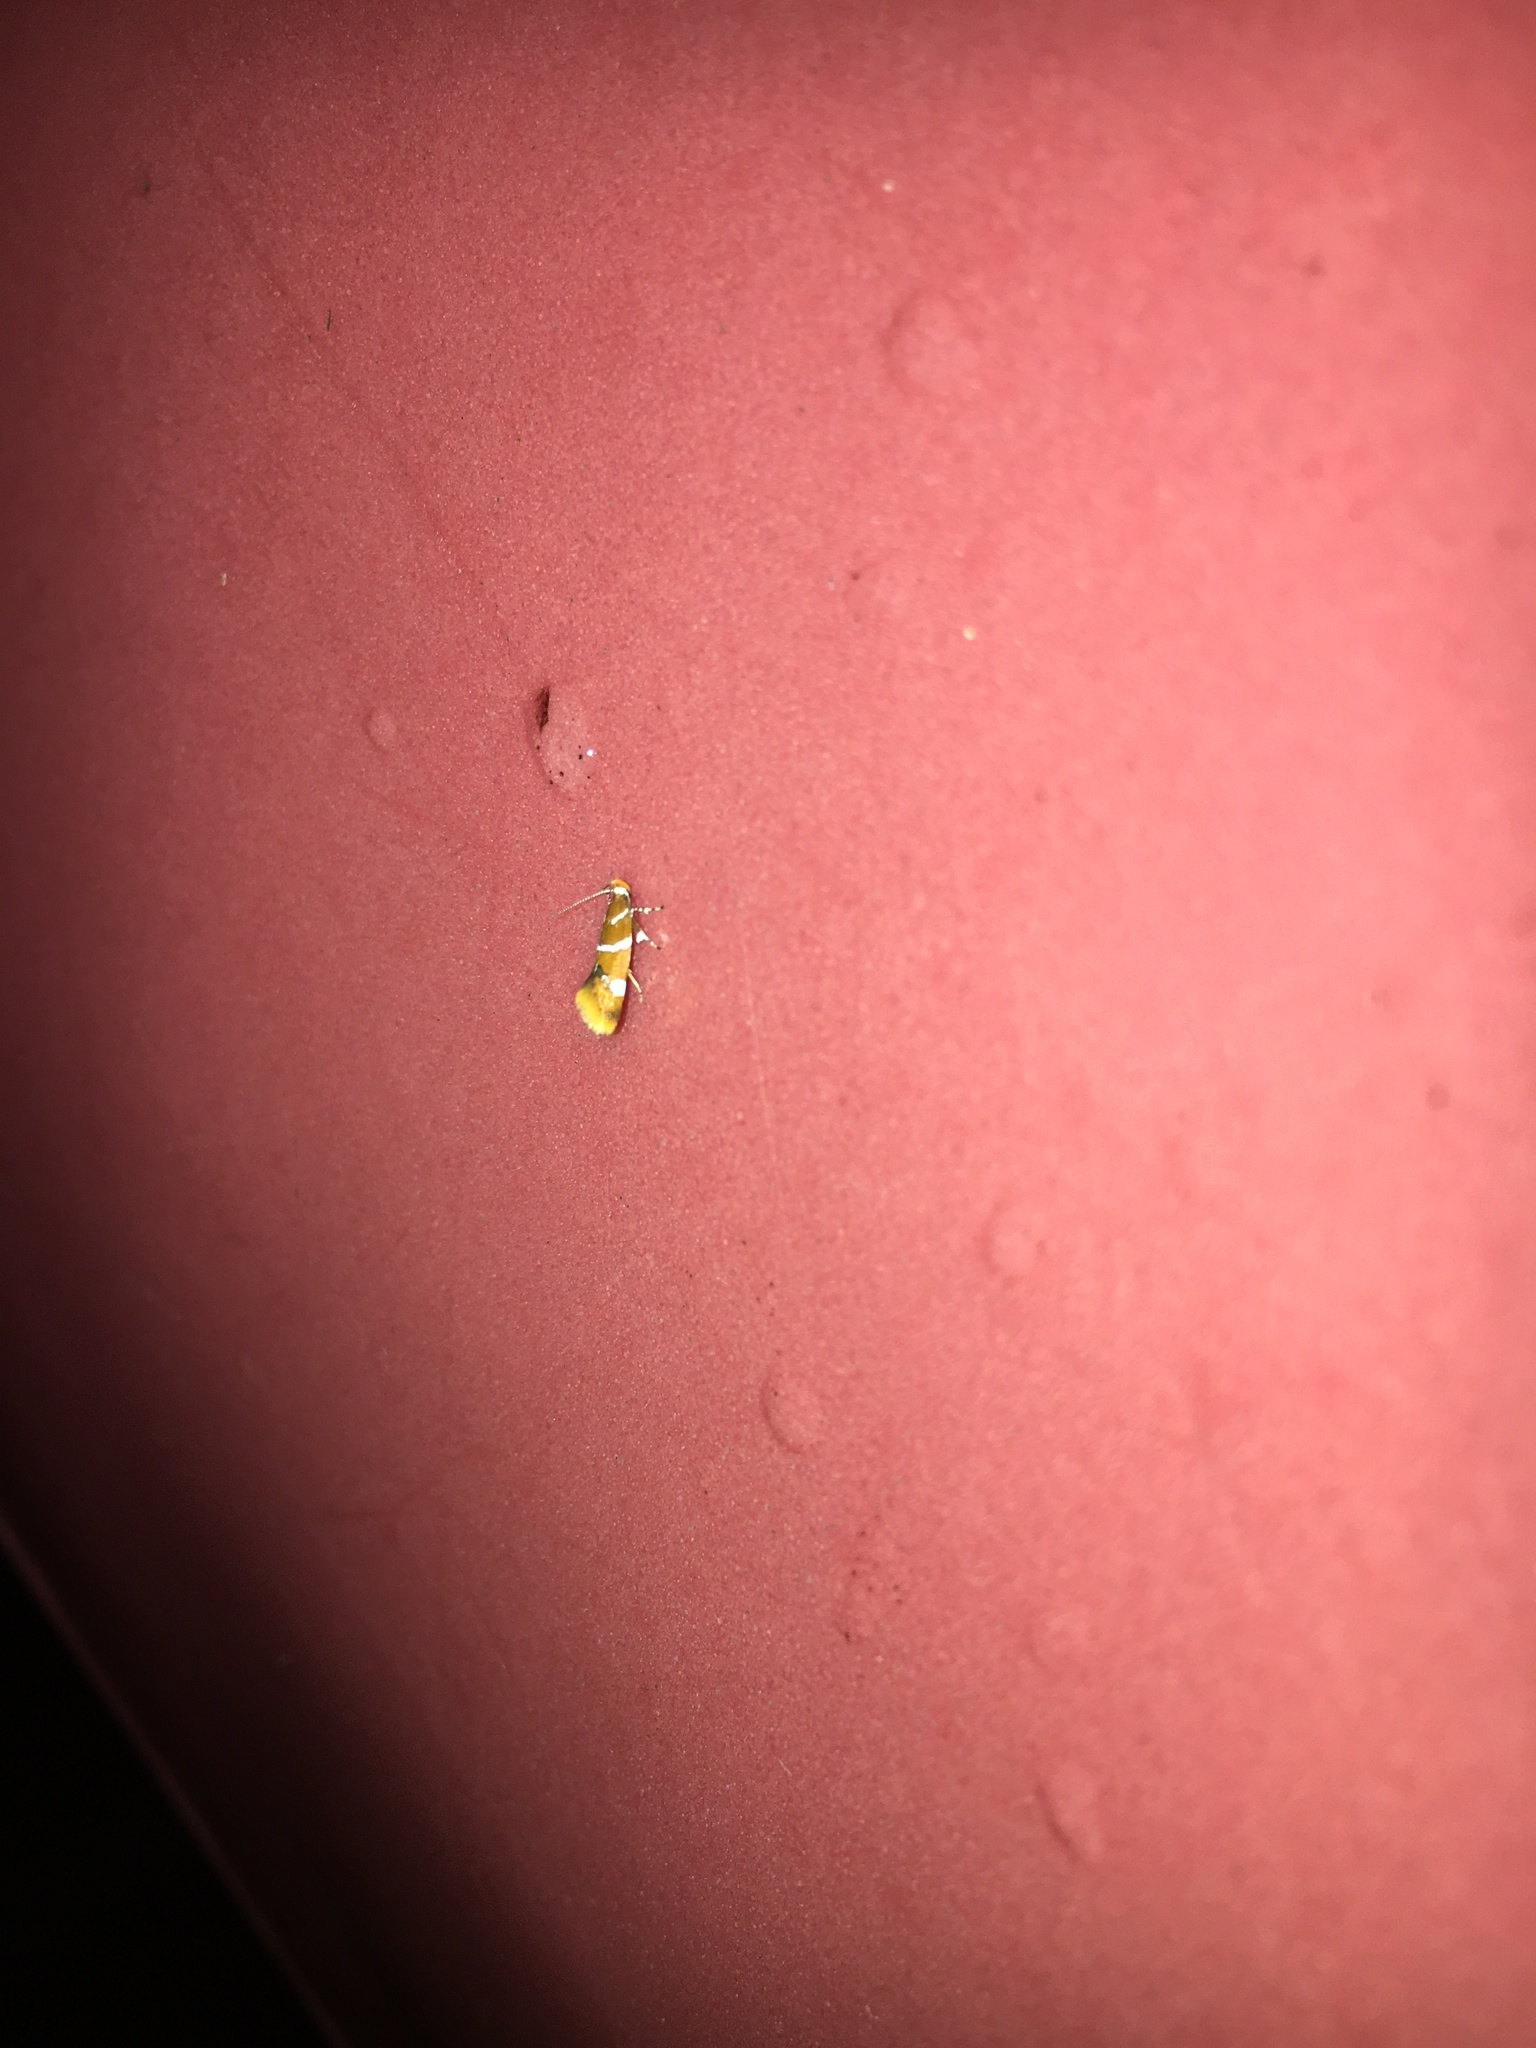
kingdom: Animalia
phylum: Arthropoda
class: Insecta
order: Lepidoptera
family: Oecophoridae
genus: Promalactis
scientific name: Promalactis suzukiella
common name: Moth
